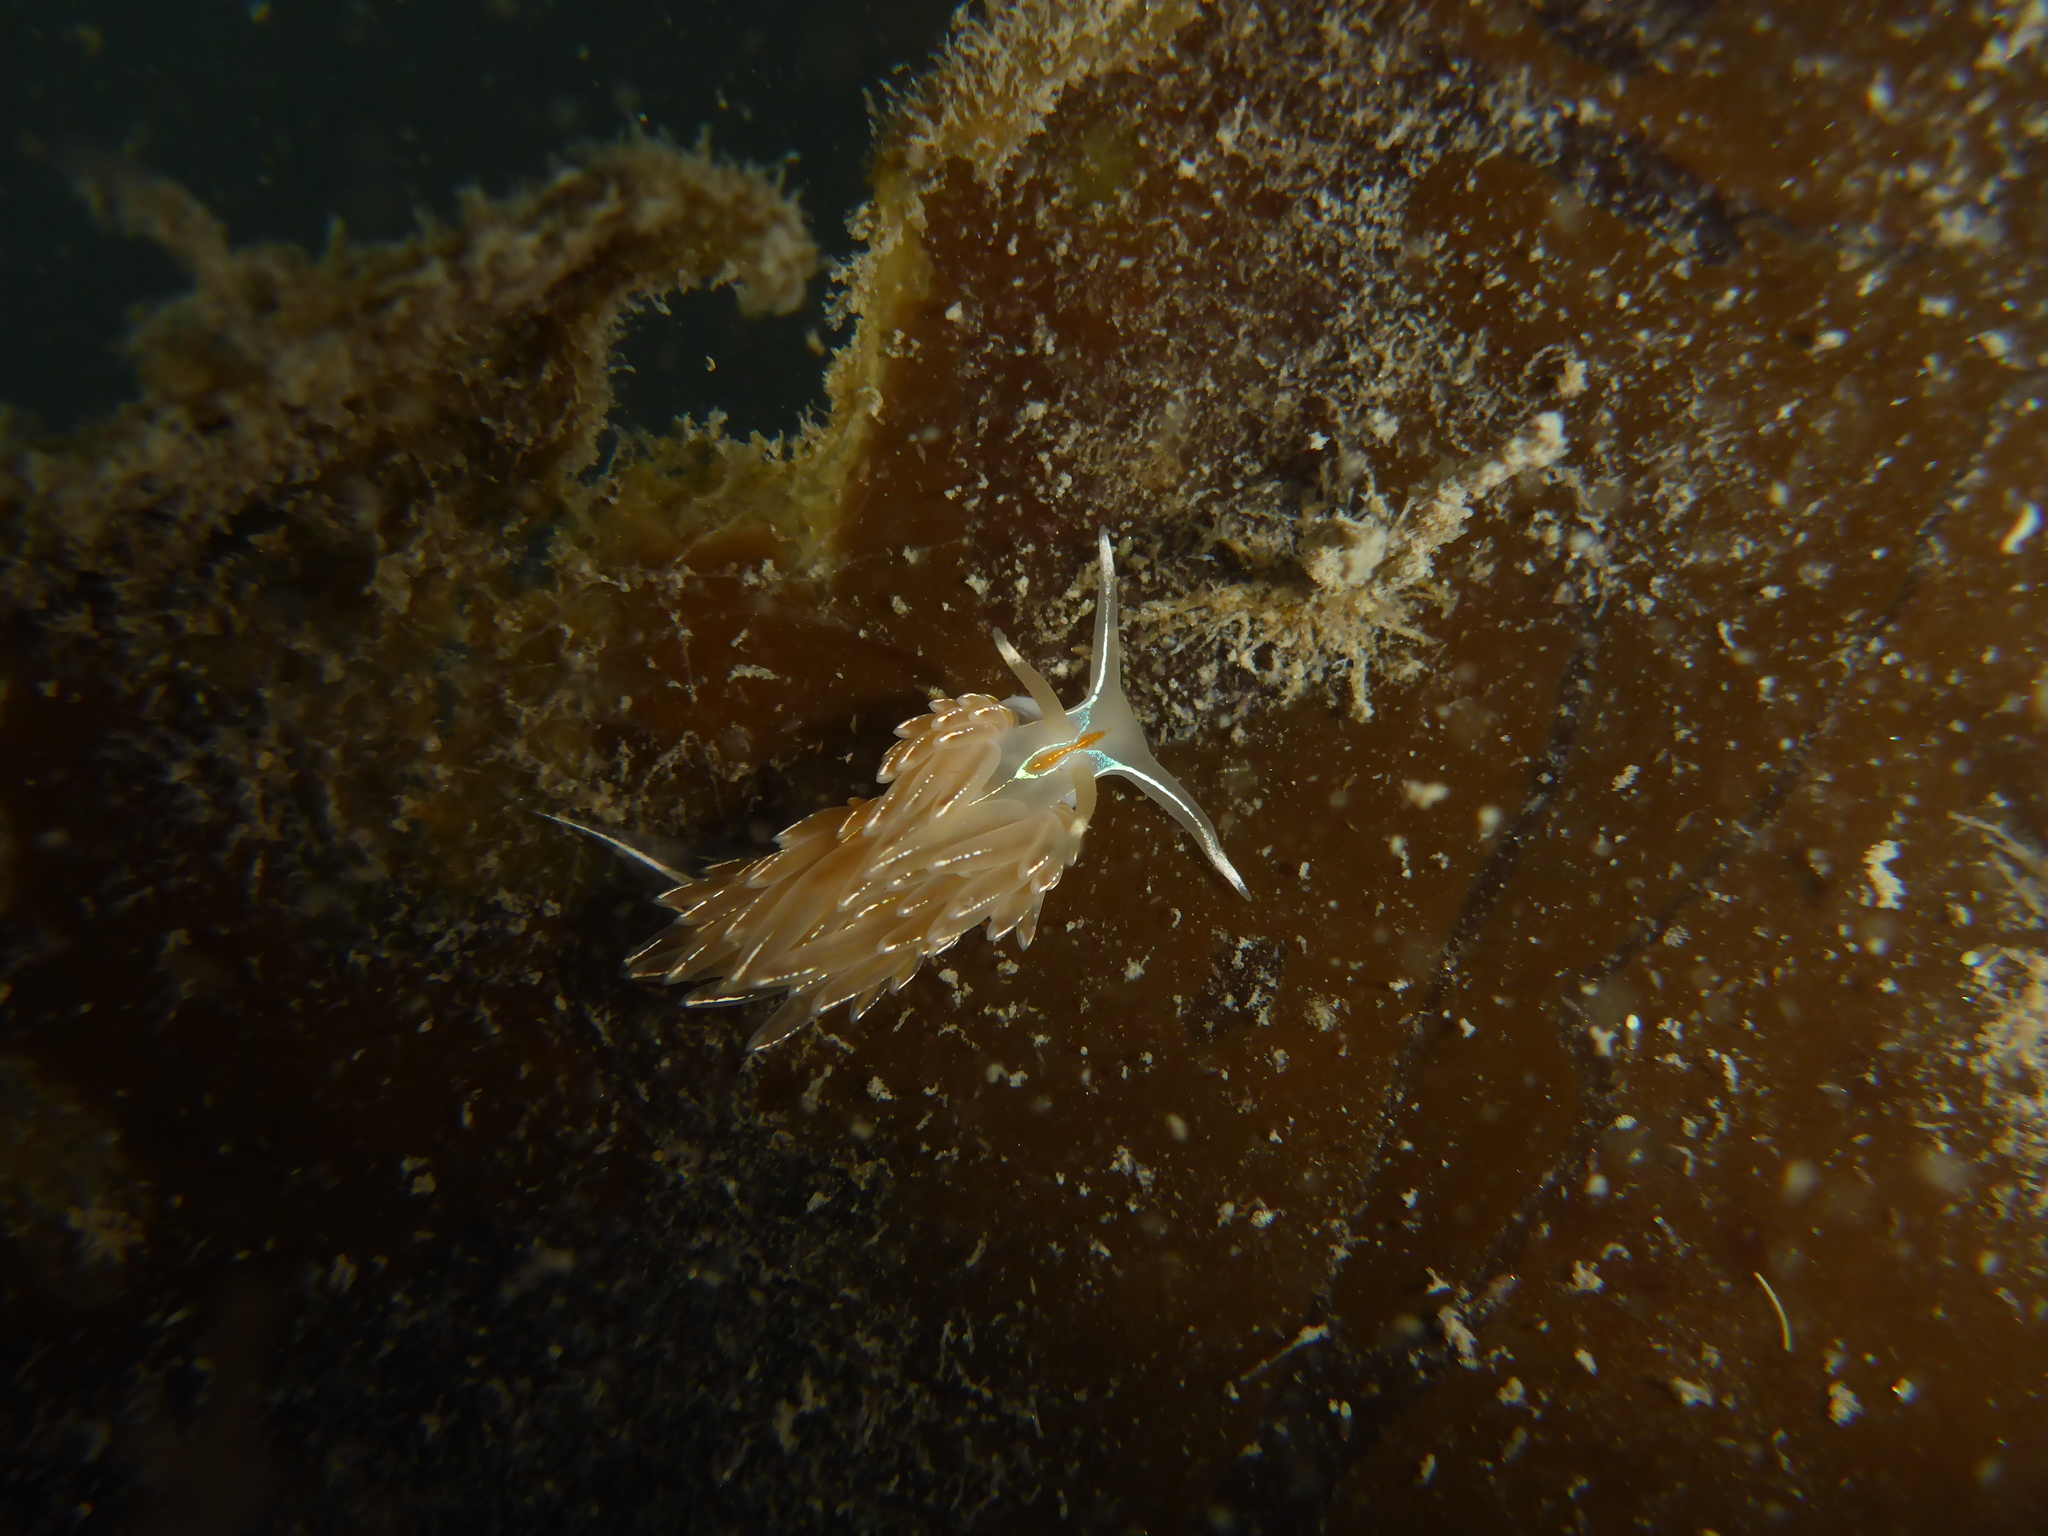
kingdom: Animalia
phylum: Mollusca
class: Gastropoda
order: Nudibranchia
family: Myrrhinidae
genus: Hermissenda
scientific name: Hermissenda crassicornis
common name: Hermissenda
